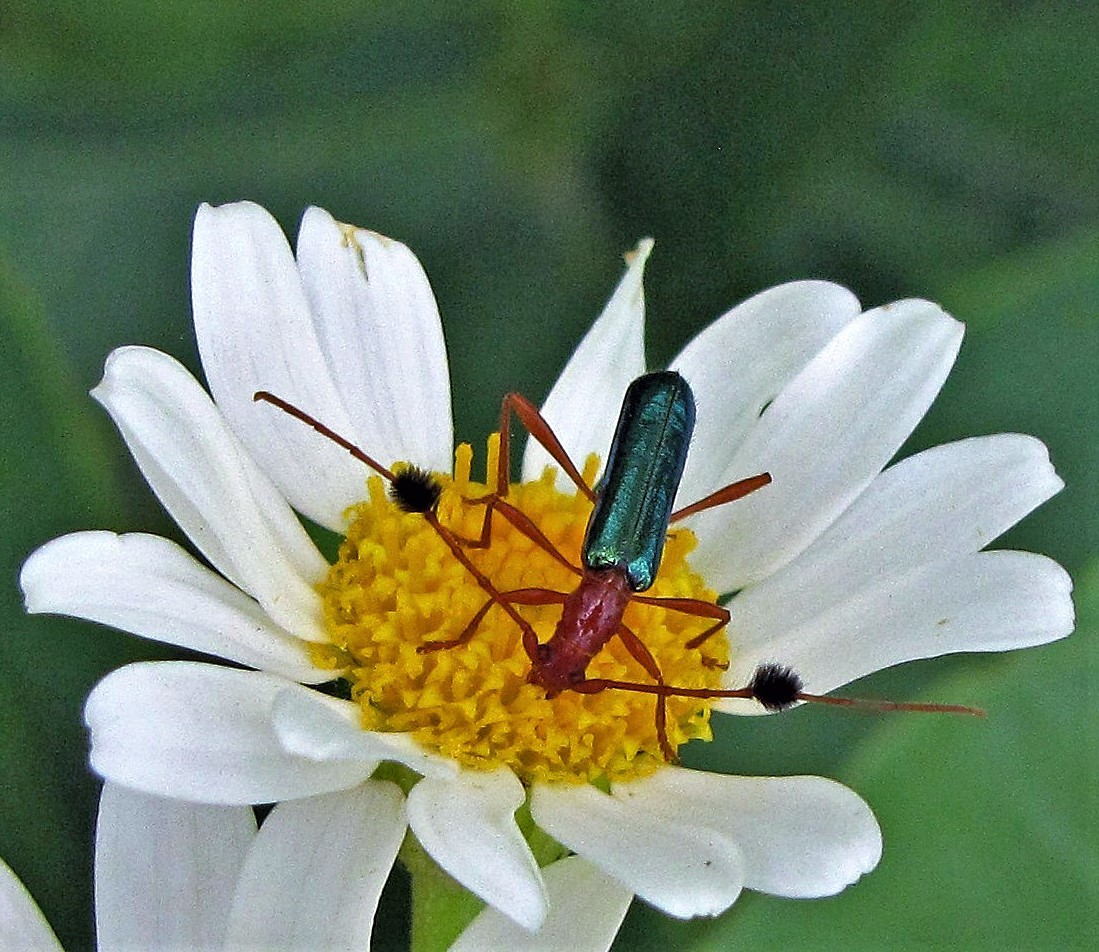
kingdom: Animalia
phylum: Arthropoda
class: Insecta
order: Coleoptera
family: Cerambycidae
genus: Paromoeocerus
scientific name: Paromoeocerus barbicornis
